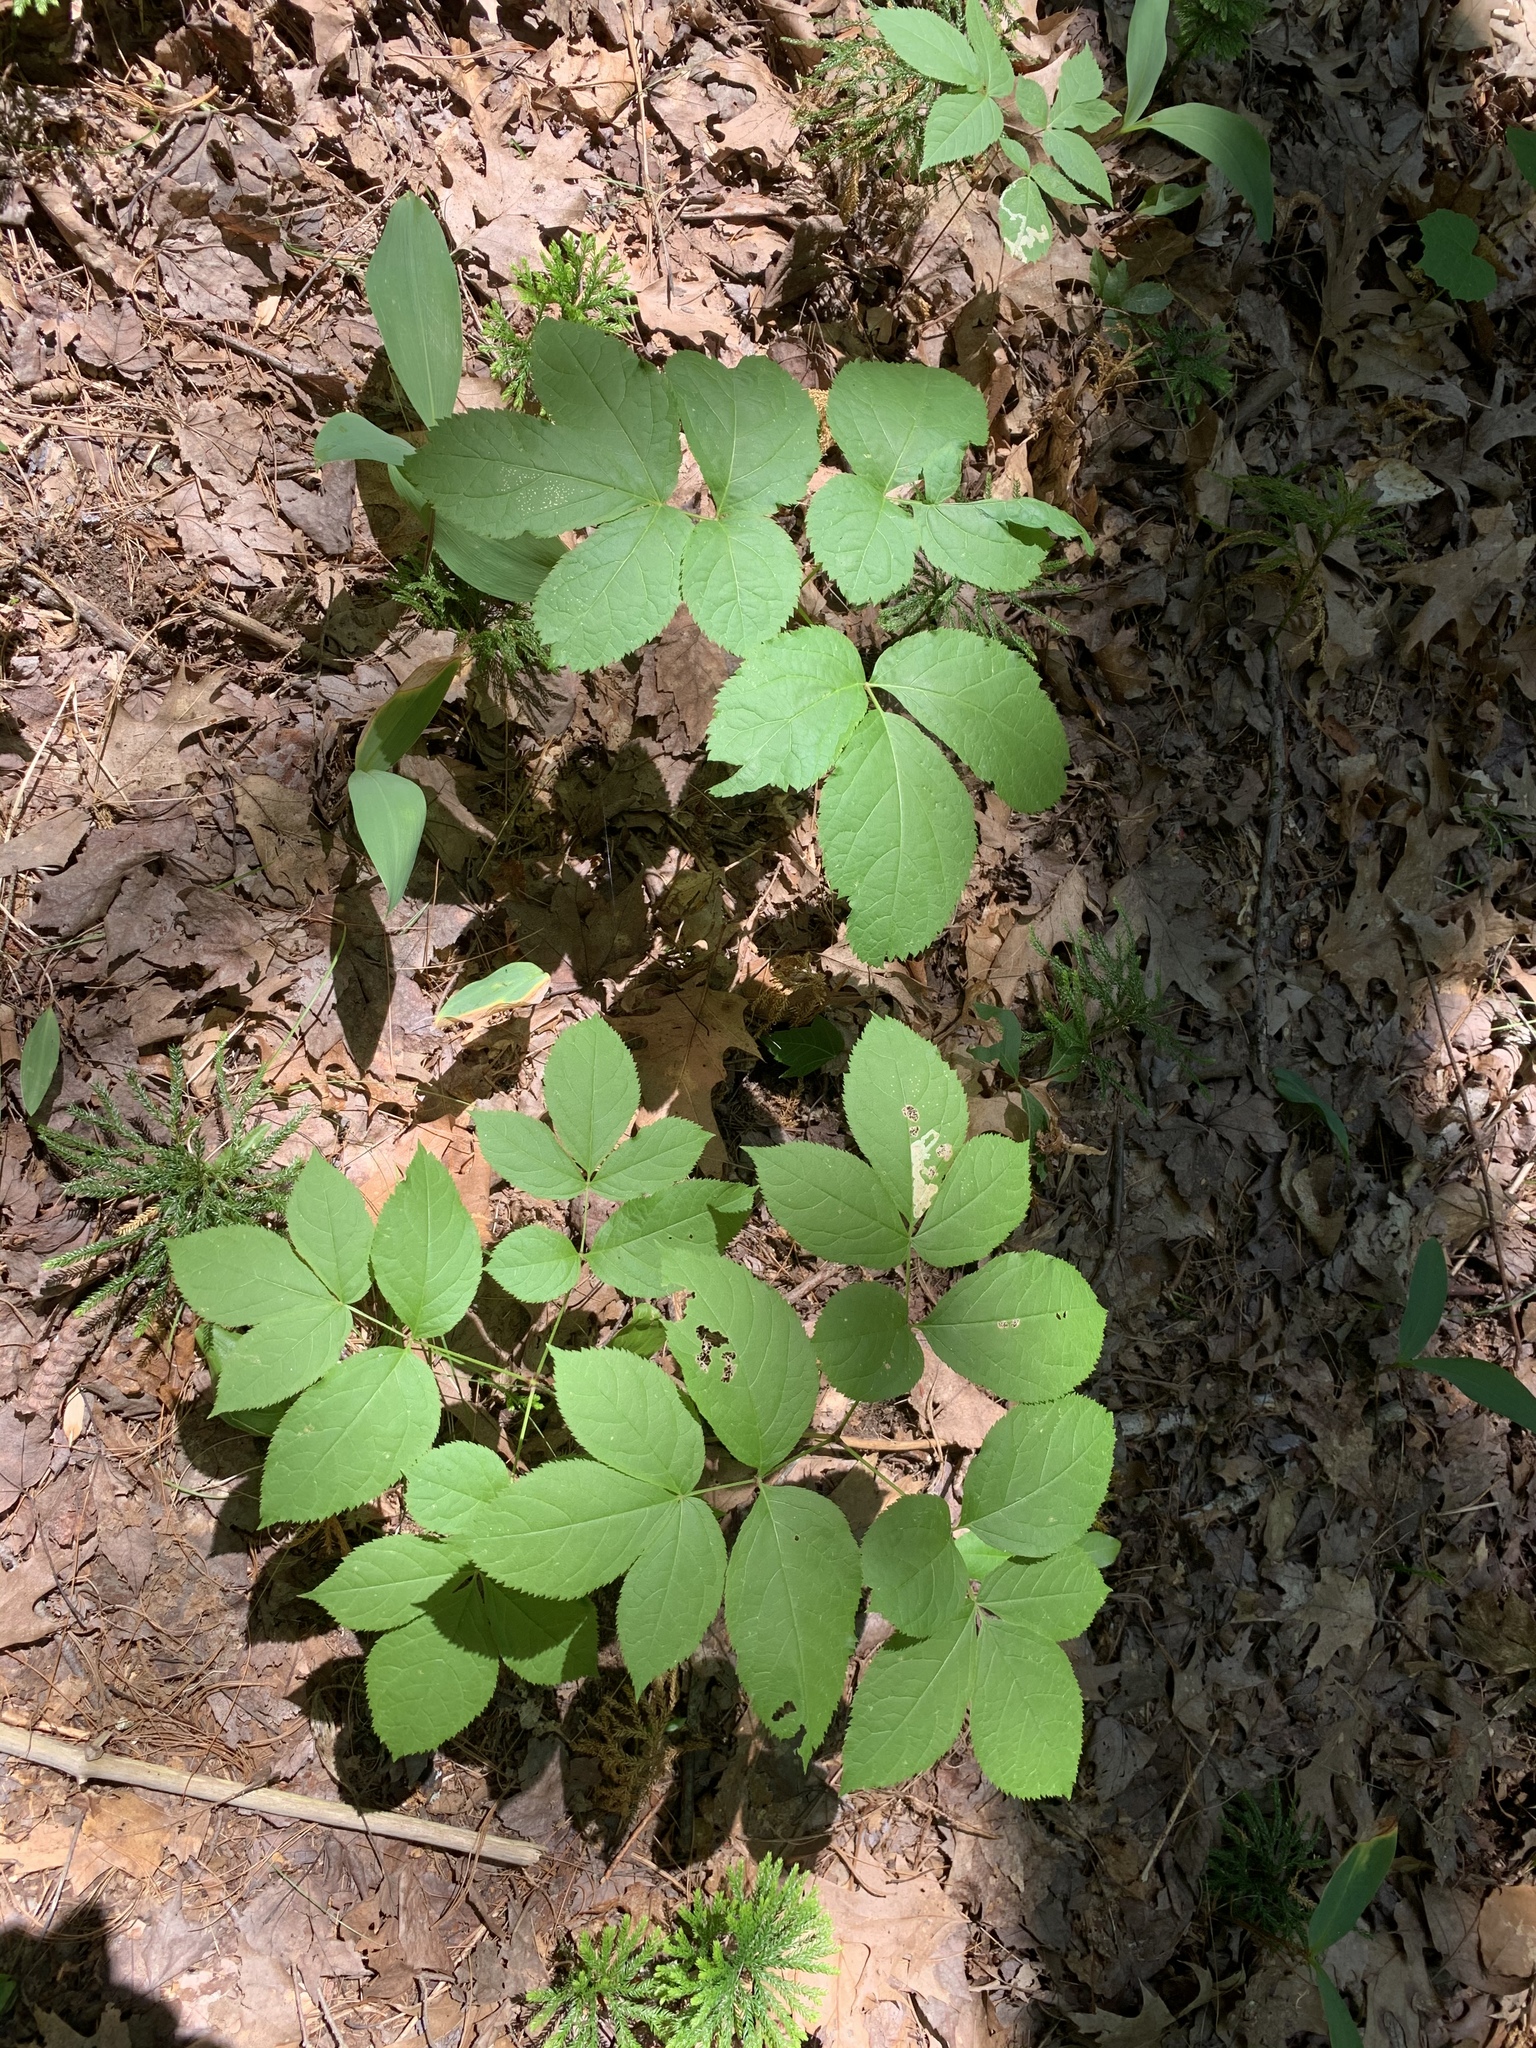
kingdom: Plantae
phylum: Tracheophyta
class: Magnoliopsida
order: Apiales
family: Araliaceae
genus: Aralia
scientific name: Aralia nudicaulis
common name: Wild sarsaparilla
